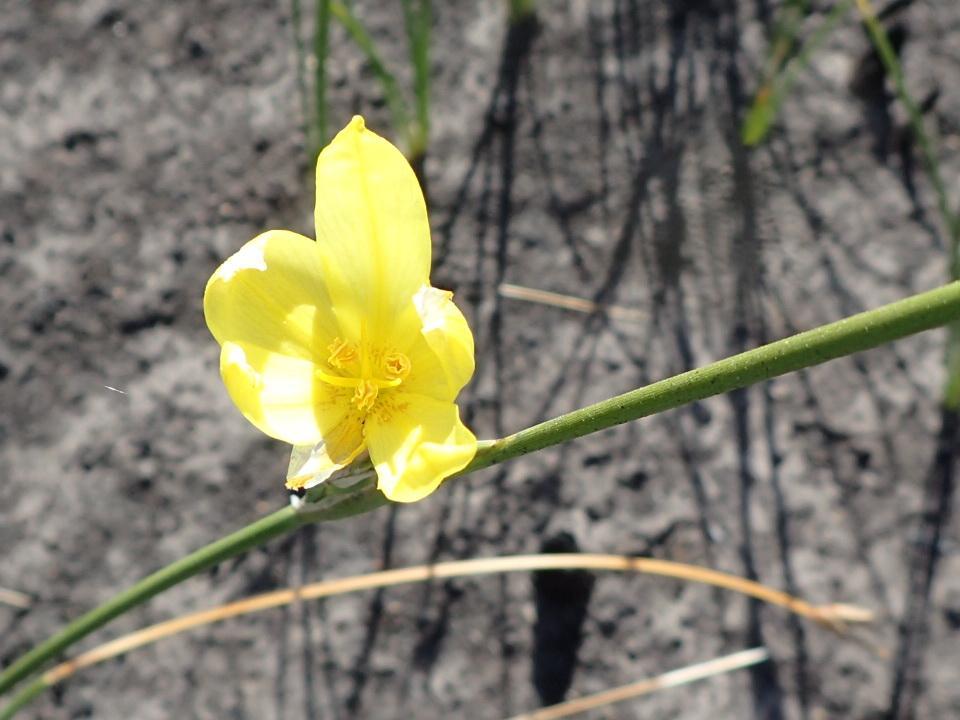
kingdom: Plantae
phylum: Tracheophyta
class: Liliopsida
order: Asparagales
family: Iridaceae
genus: Bobartia
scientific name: Bobartia aphylla
